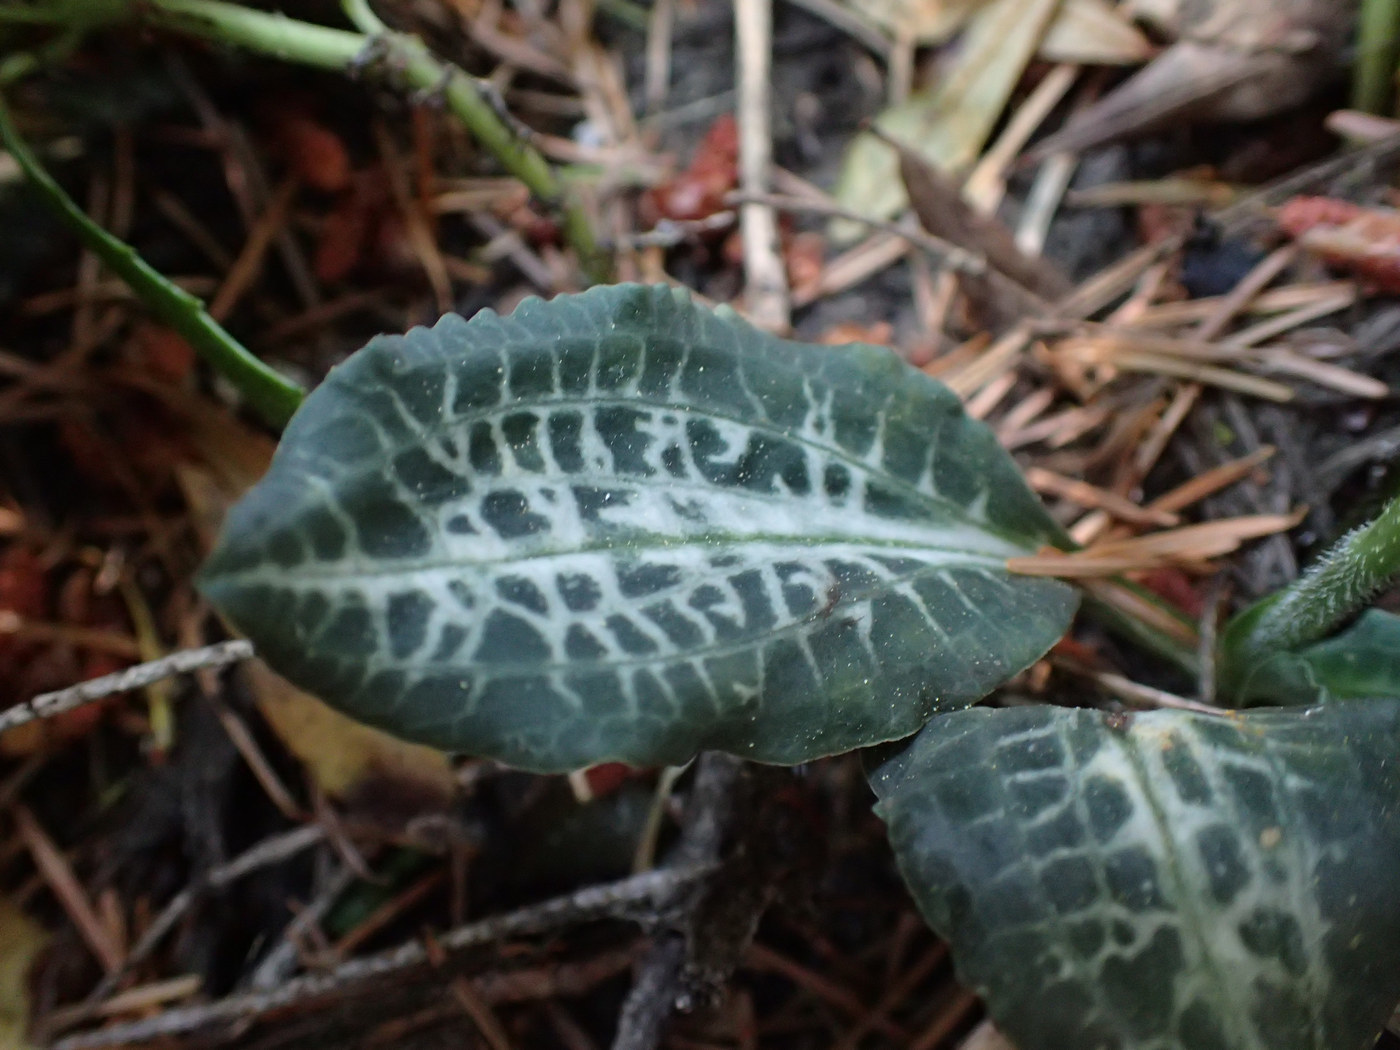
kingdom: Plantae
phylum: Tracheophyta
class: Liliopsida
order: Asparagales
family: Orchidaceae
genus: Goodyera
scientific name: Goodyera oblongifolia
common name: Giant rattlesnake-plantain
